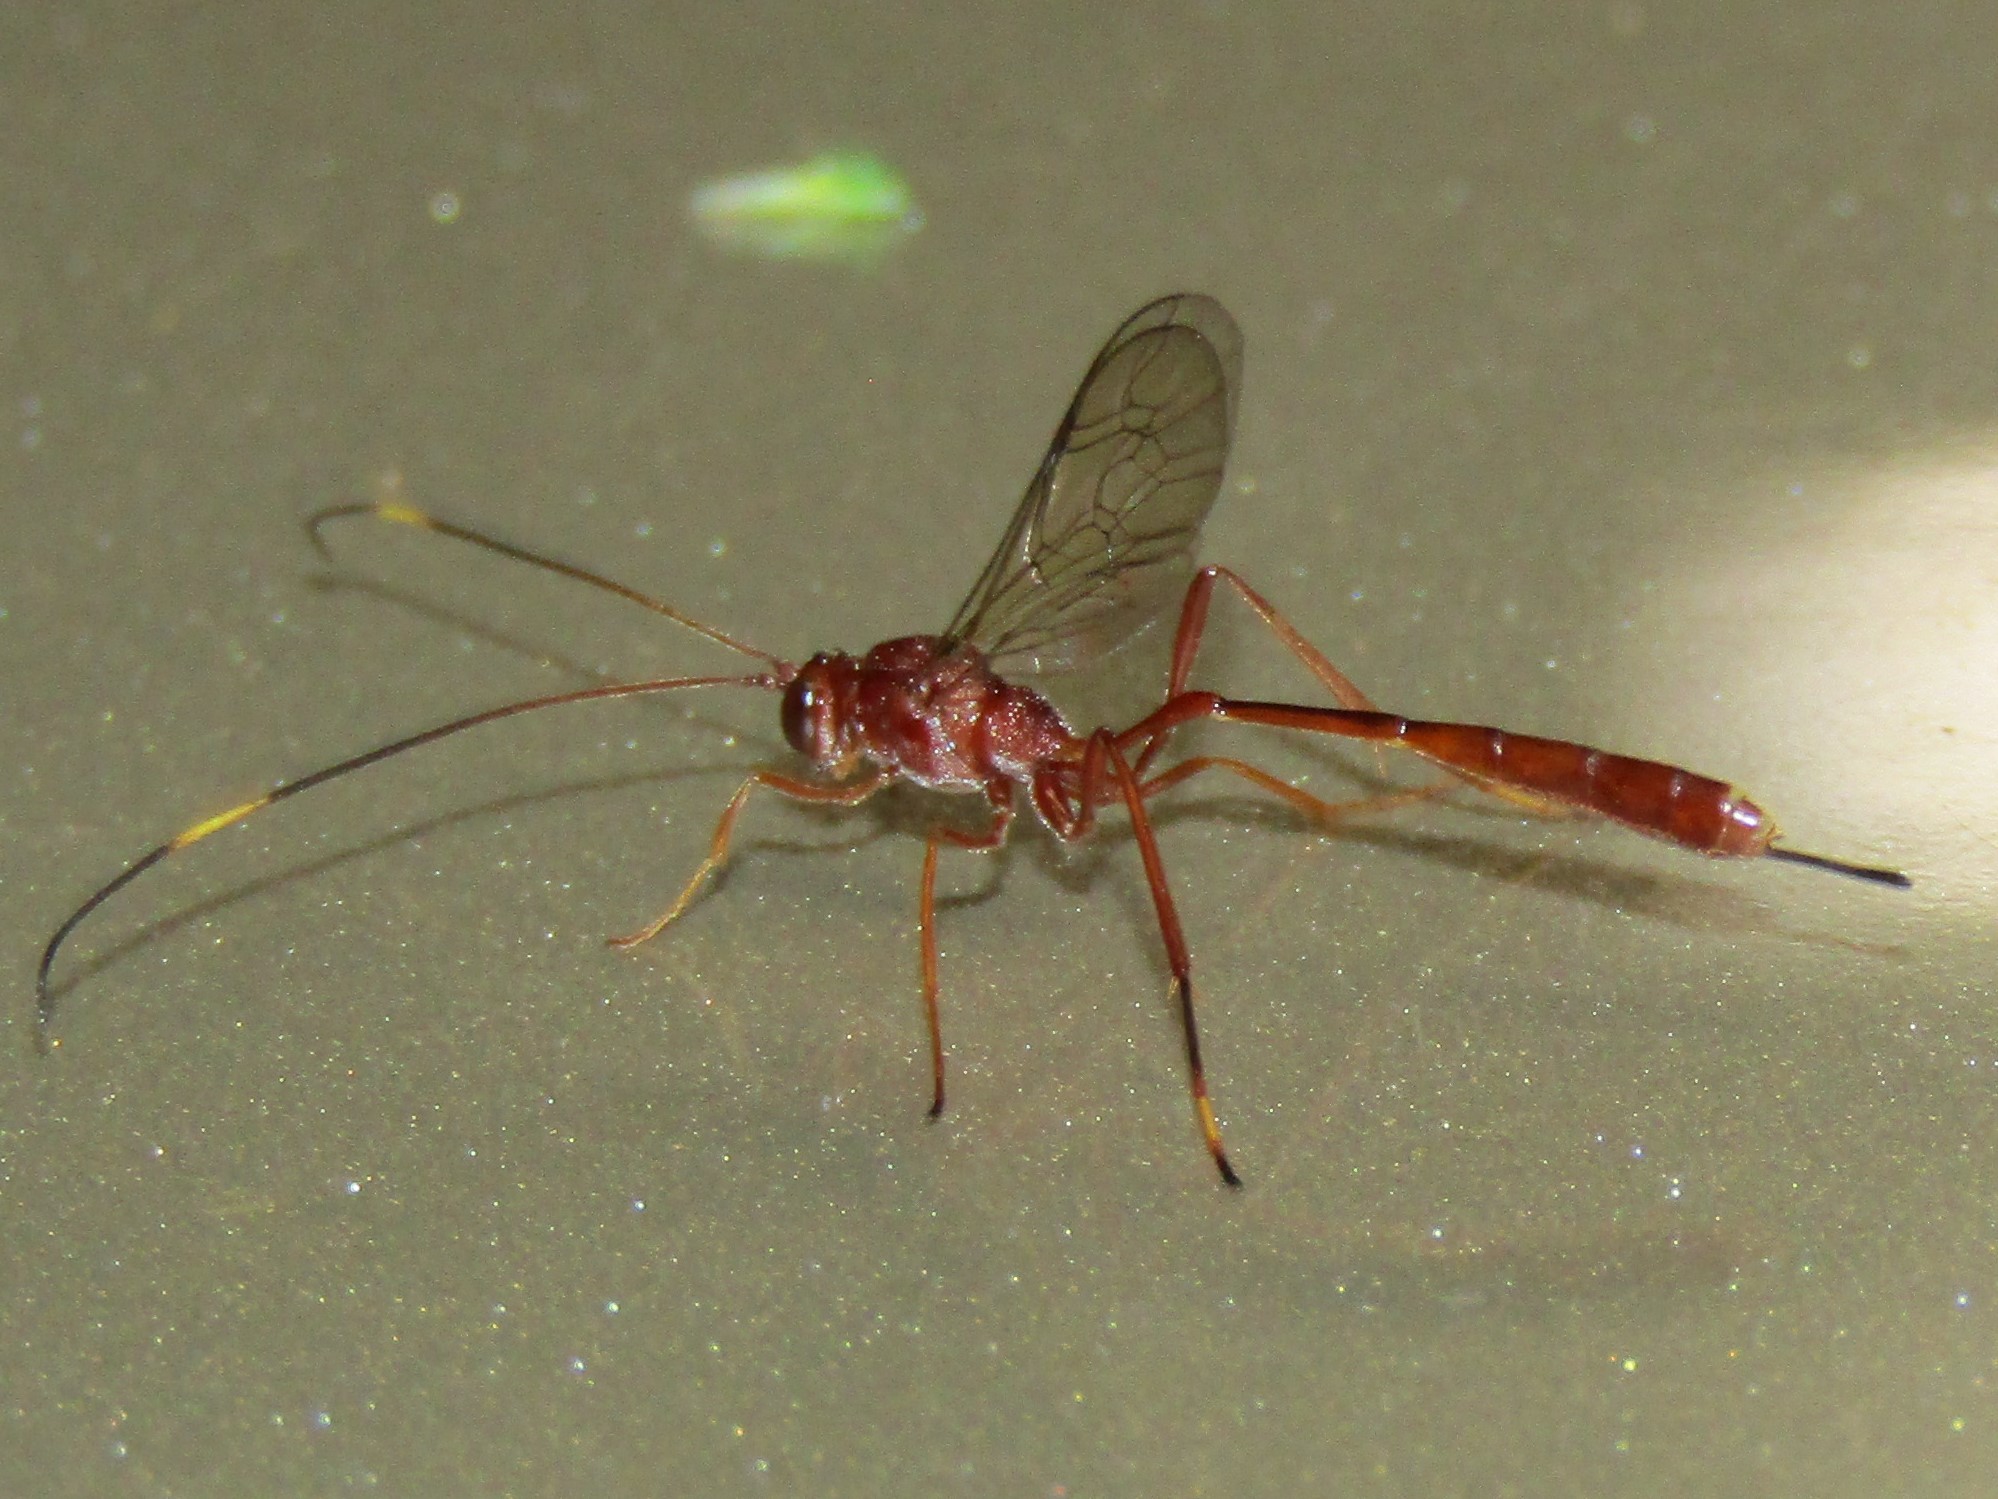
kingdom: Animalia
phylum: Arthropoda
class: Insecta
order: Hymenoptera
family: Ichneumonidae
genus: Ophiopterus
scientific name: Ophiopterus cincticornis
